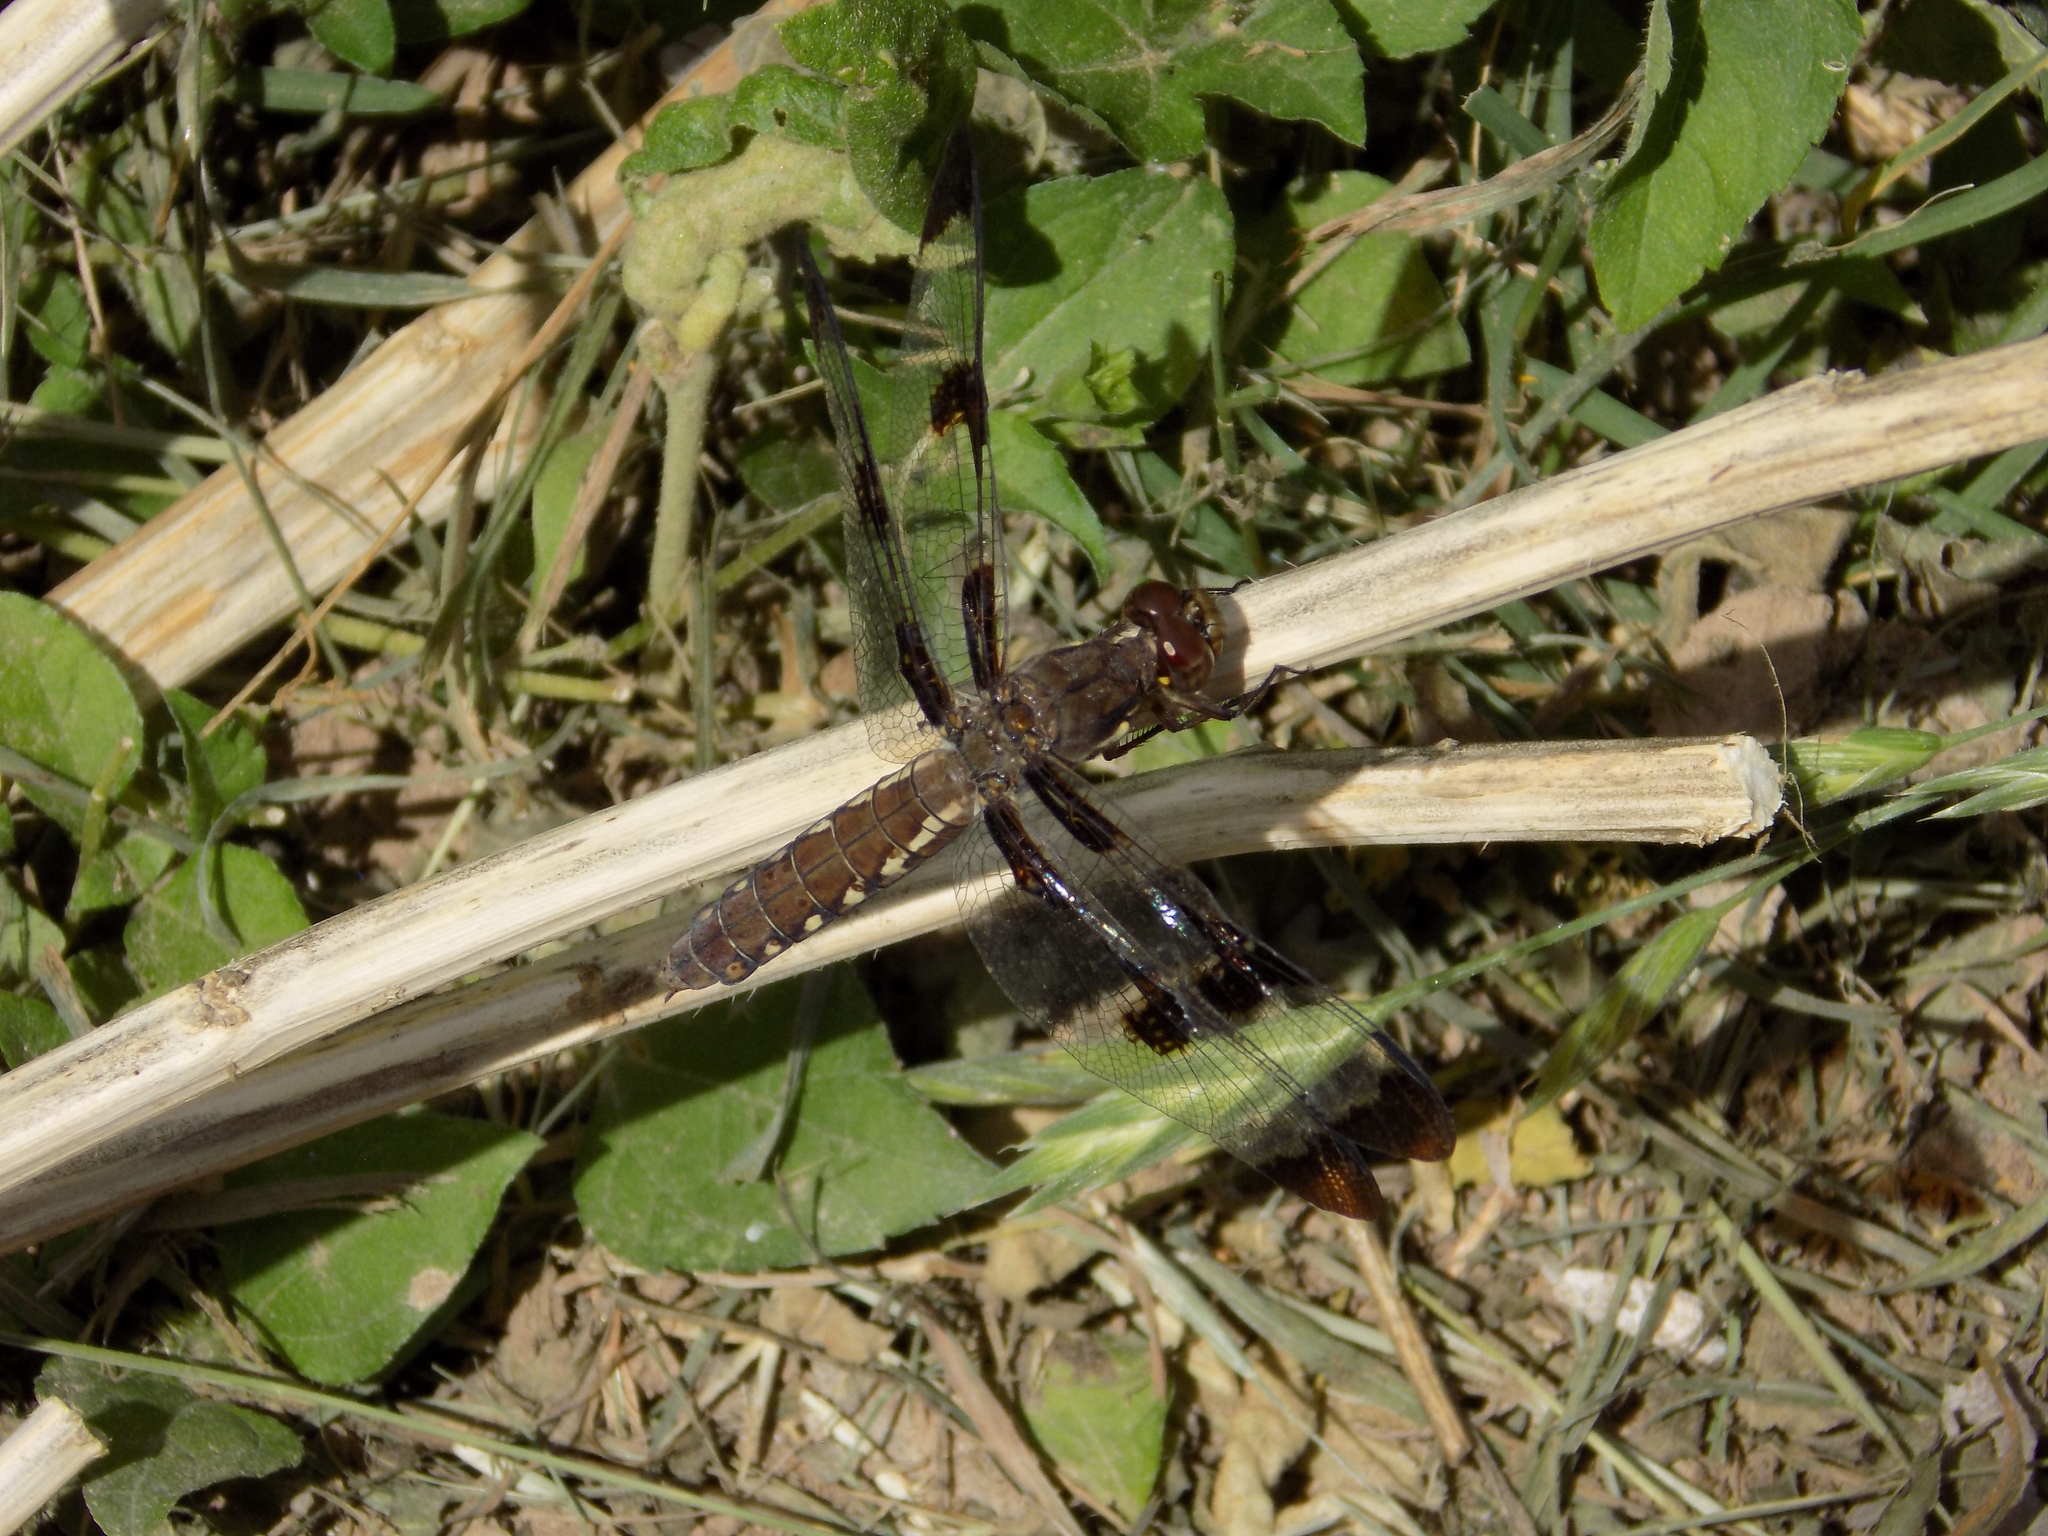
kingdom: Animalia
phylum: Arthropoda
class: Insecta
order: Odonata
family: Libellulidae
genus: Plathemis
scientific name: Plathemis lydia
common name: Common whitetail
